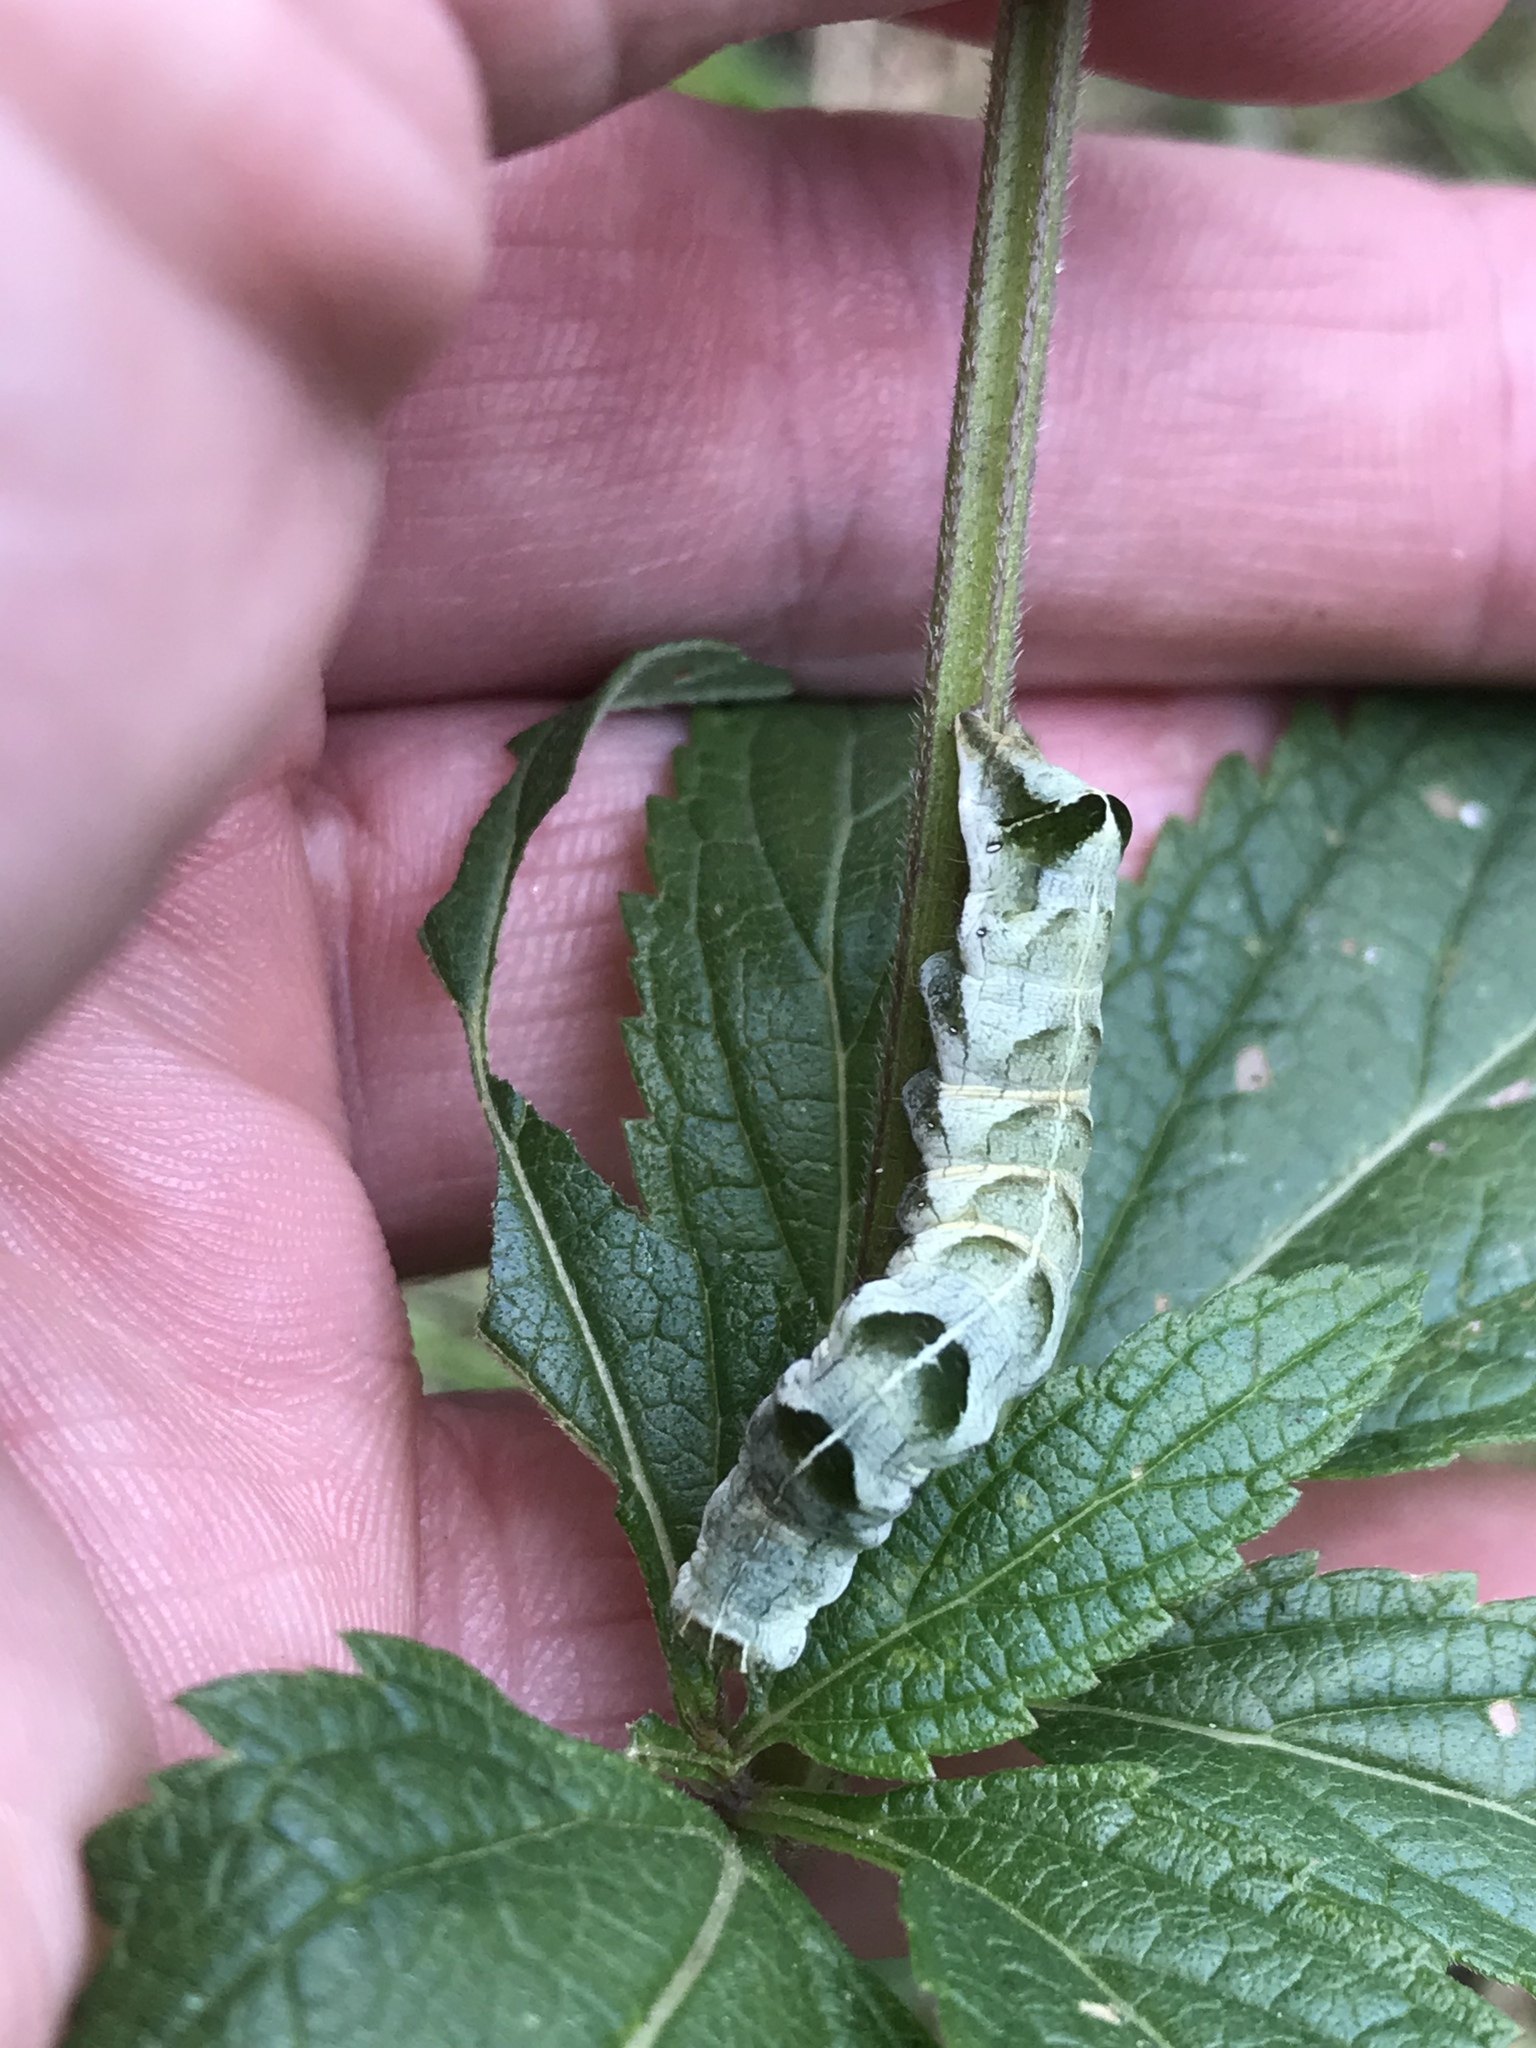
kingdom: Animalia
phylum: Arthropoda
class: Insecta
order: Lepidoptera
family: Noctuidae
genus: Melanchra
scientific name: Melanchra adjuncta
